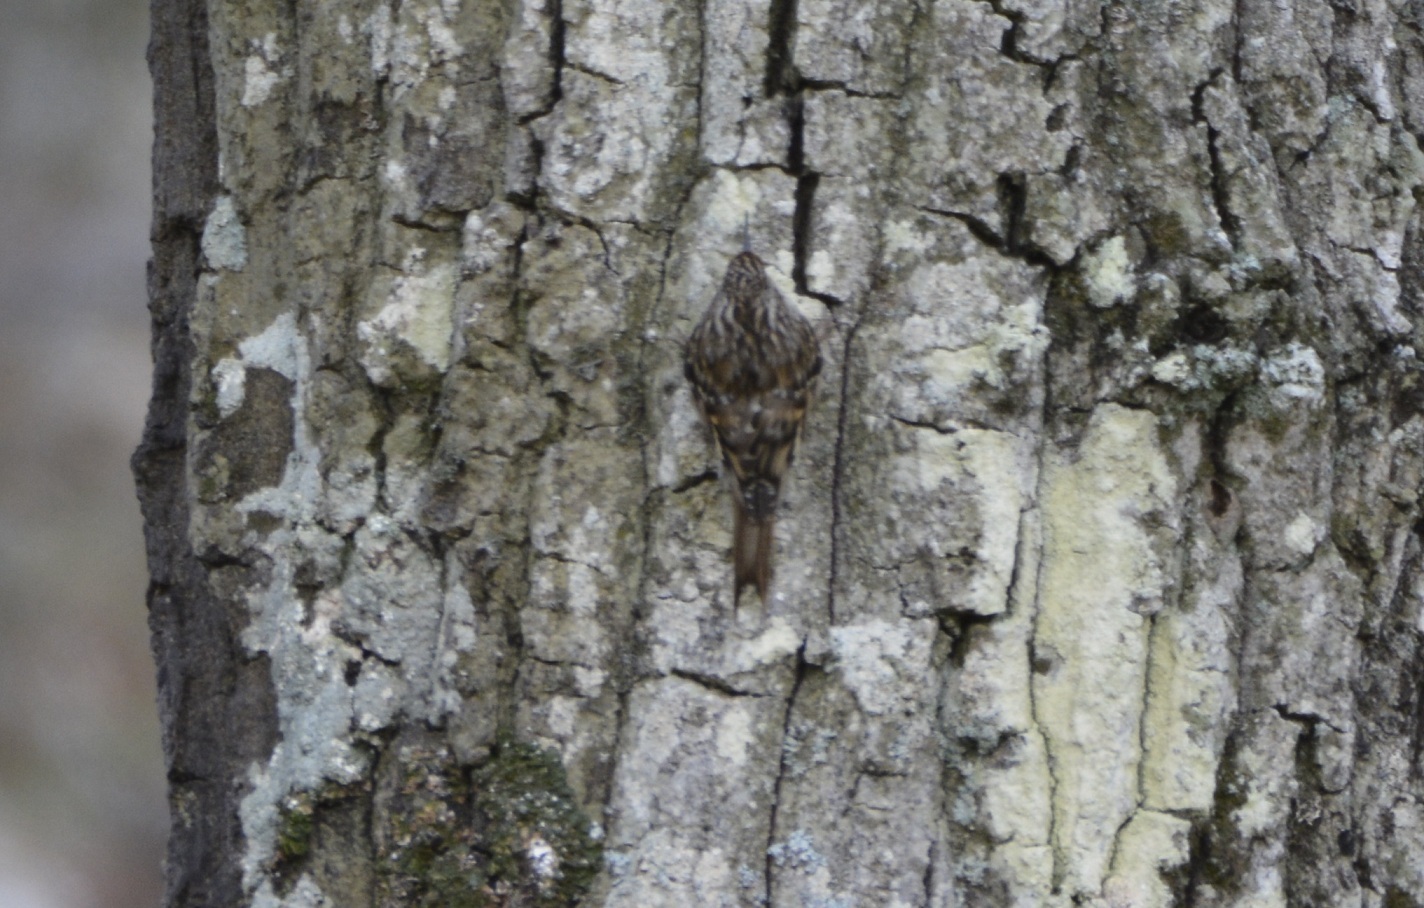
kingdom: Animalia
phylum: Chordata
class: Aves
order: Passeriformes
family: Certhiidae
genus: Certhia
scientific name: Certhia brachydactyla
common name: Short-toed treecreeper
